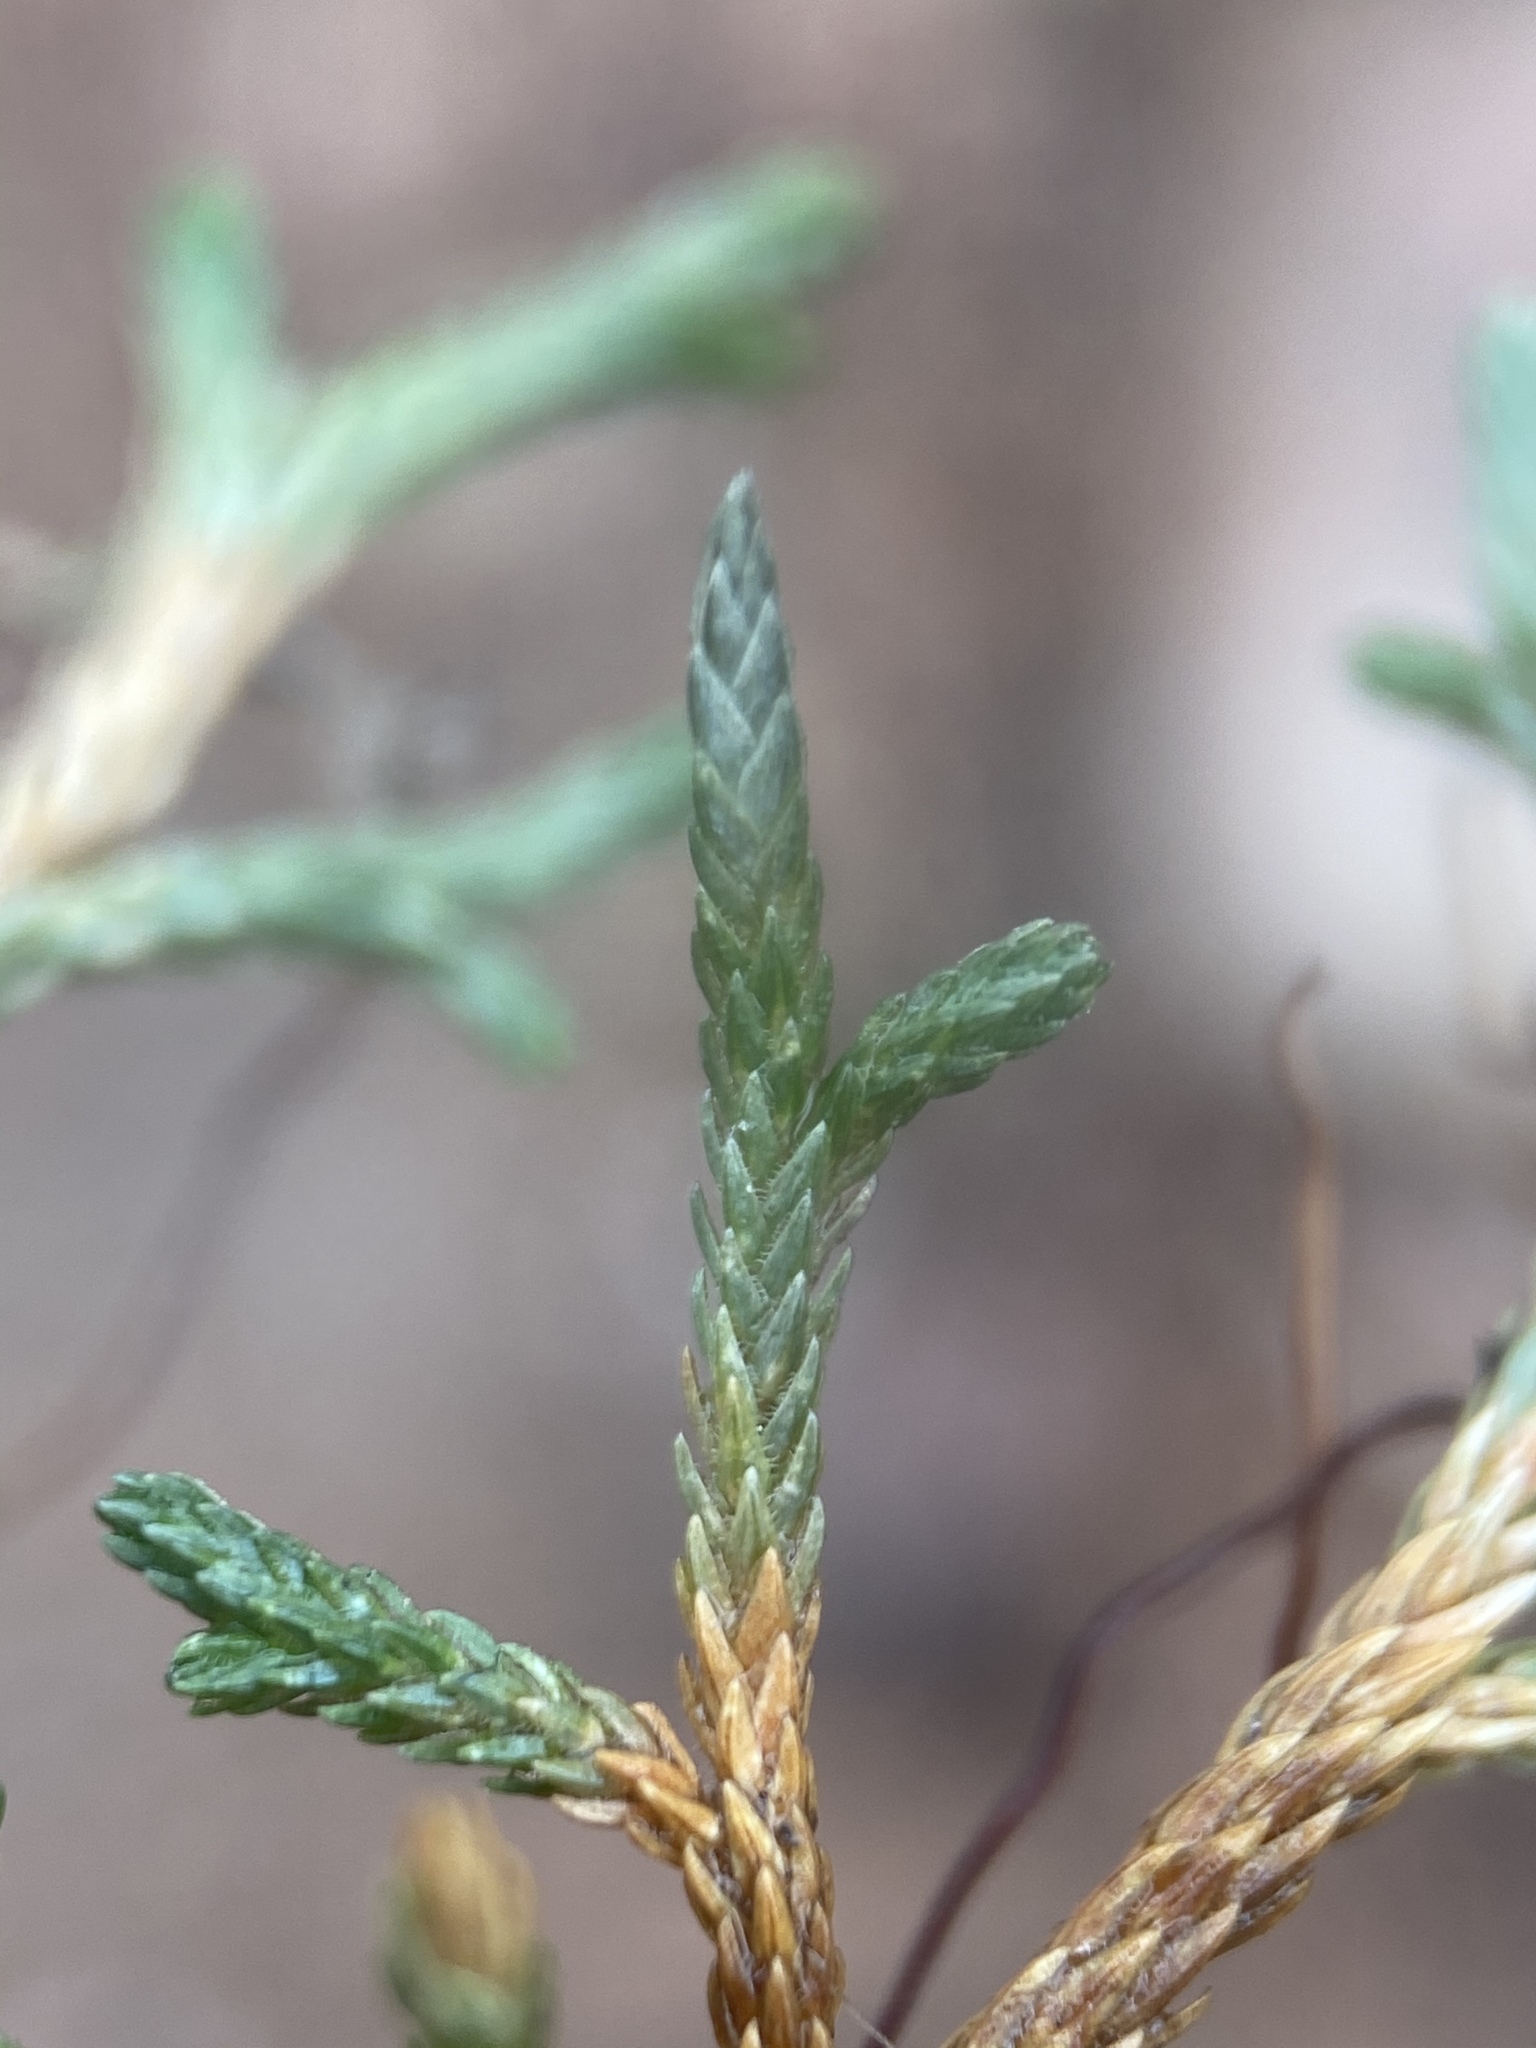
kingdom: Plantae
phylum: Tracheophyta
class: Lycopodiopsida
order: Selaginellales
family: Selaginellaceae
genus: Selaginella
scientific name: Selaginella mutica
